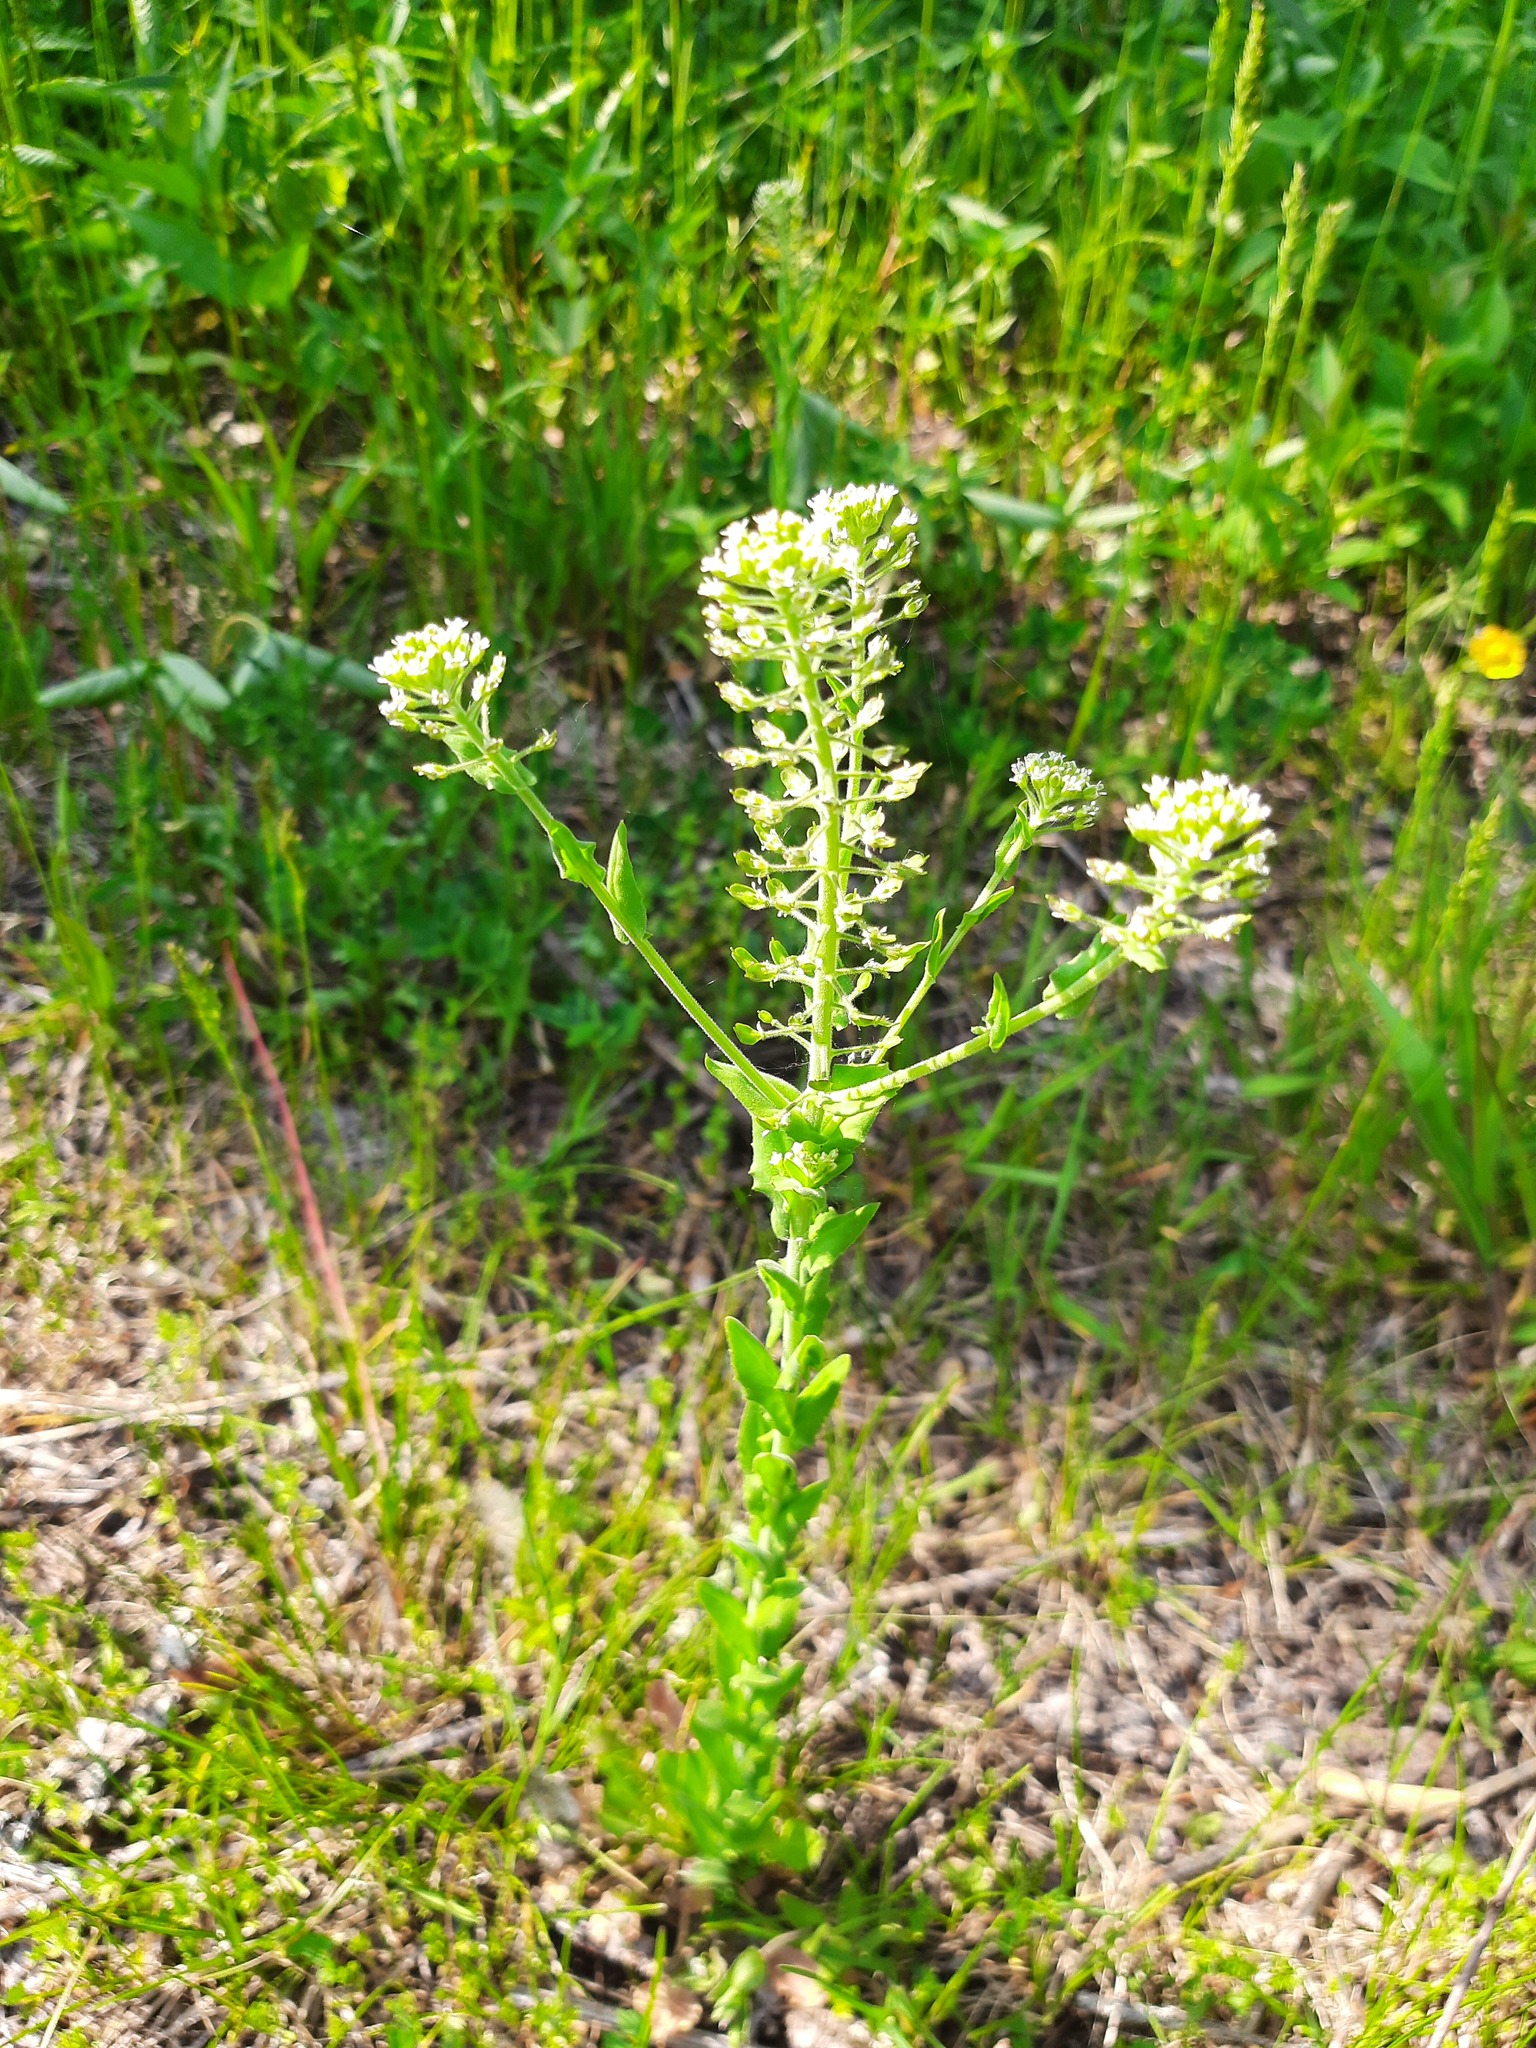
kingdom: Plantae
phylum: Tracheophyta
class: Magnoliopsida
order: Brassicales
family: Brassicaceae
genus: Lepidium
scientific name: Lepidium campestre
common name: Field pepperwort
